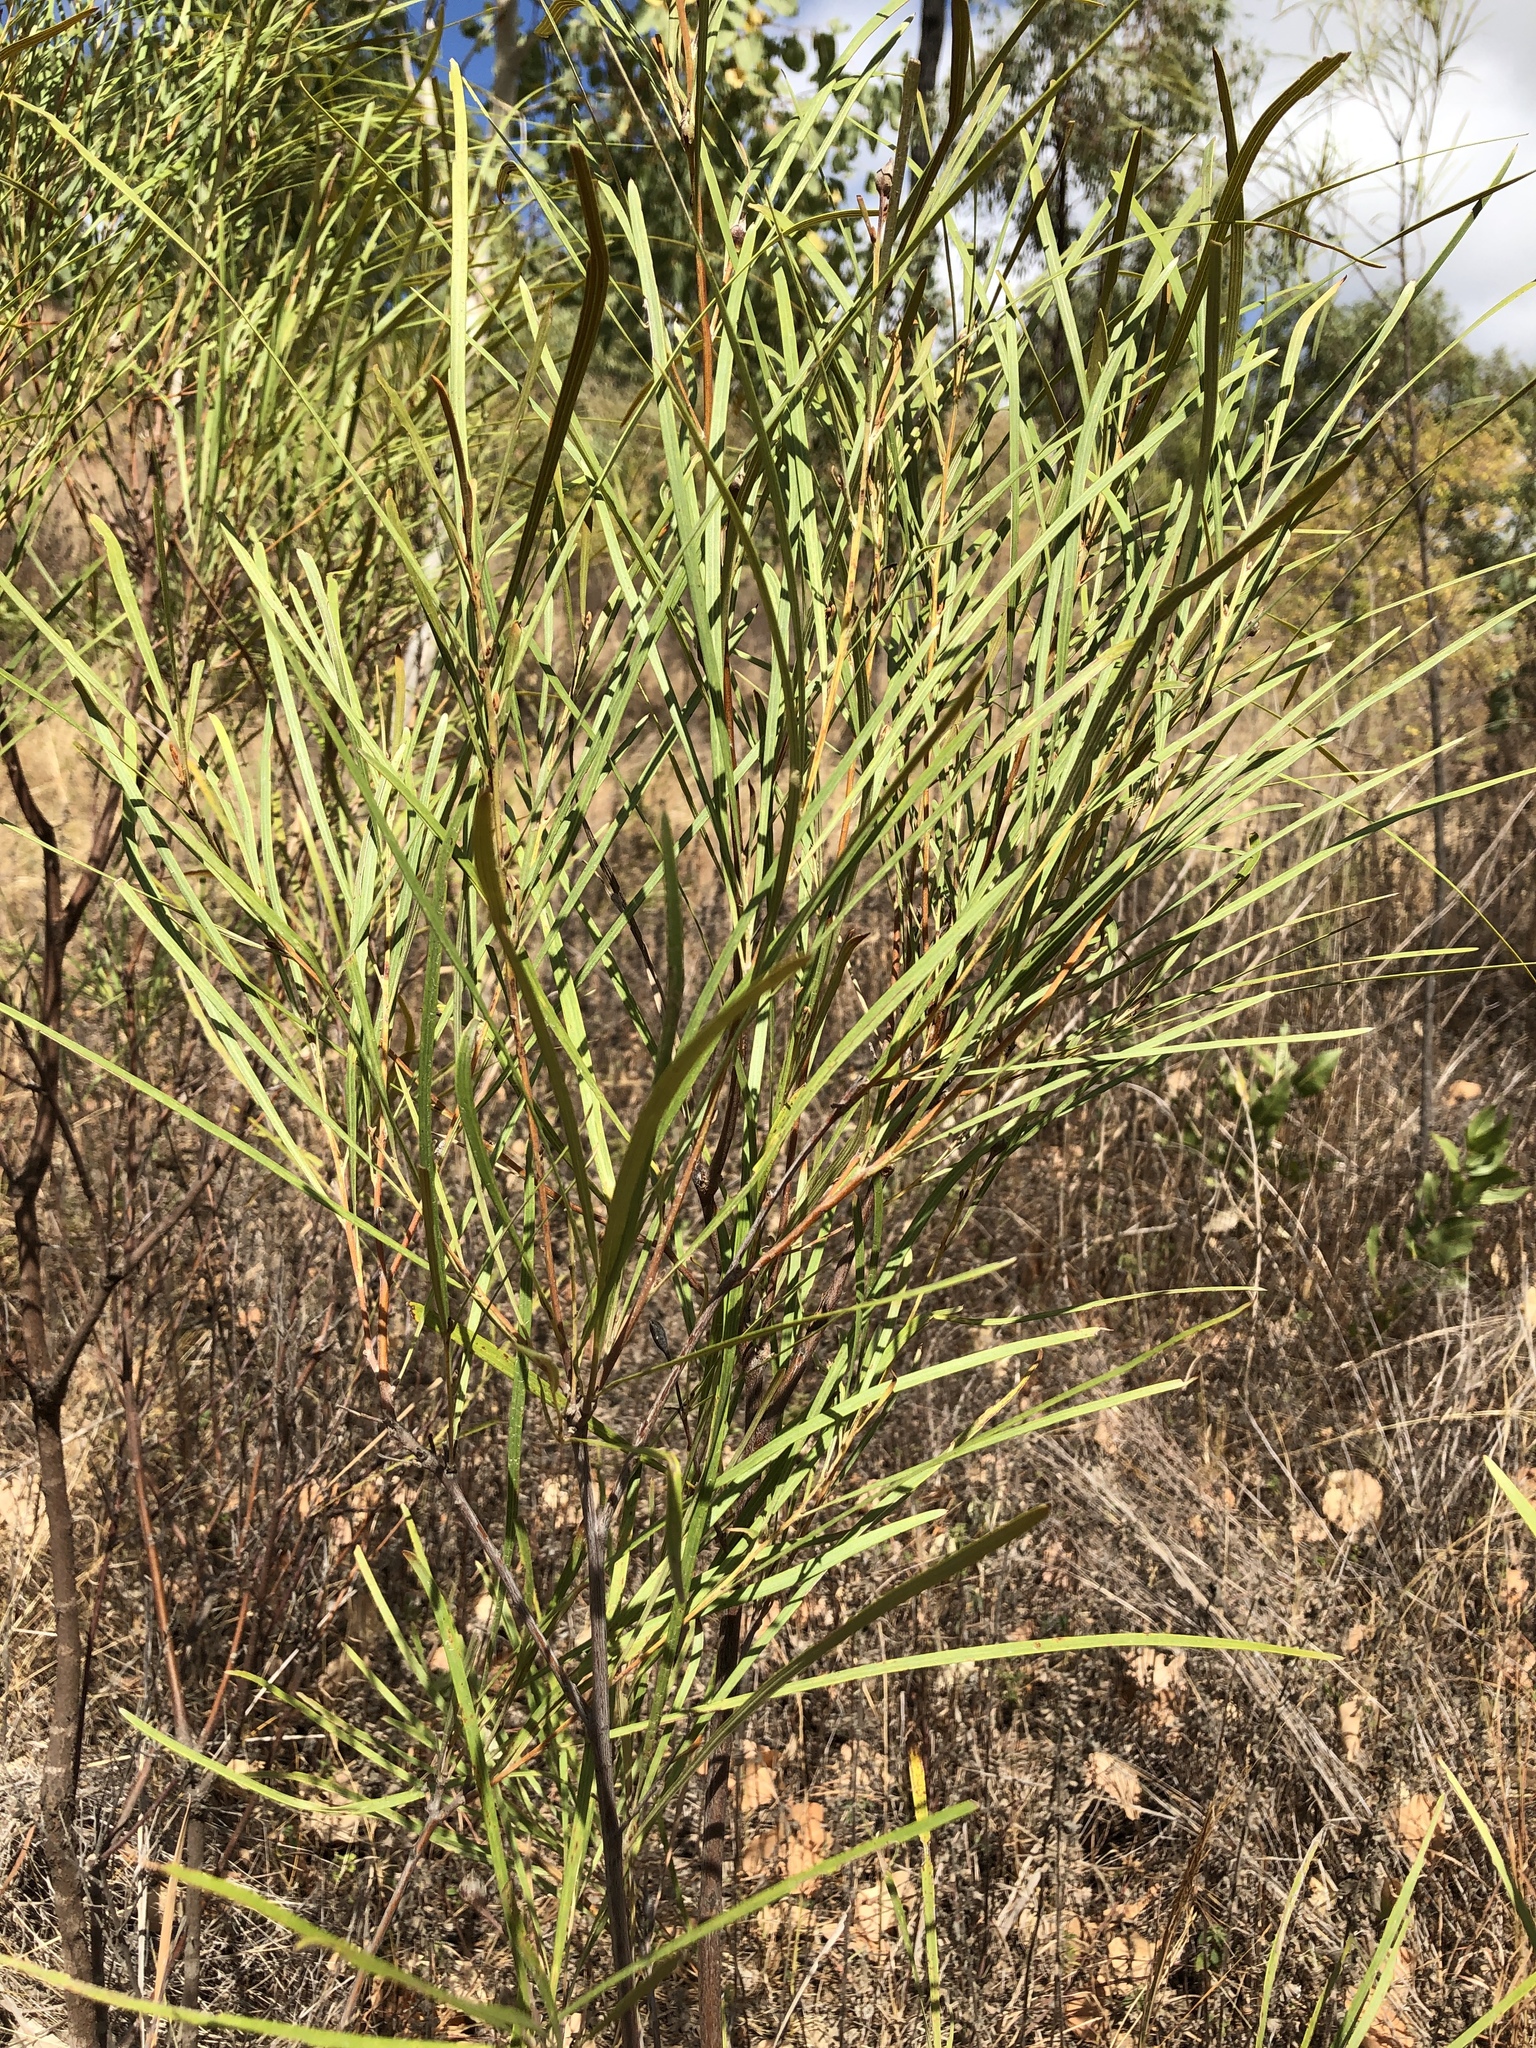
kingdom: Plantae
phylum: Tracheophyta
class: Magnoliopsida
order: Proteales
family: Proteaceae
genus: Grevillea
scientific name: Grevillea parallela
